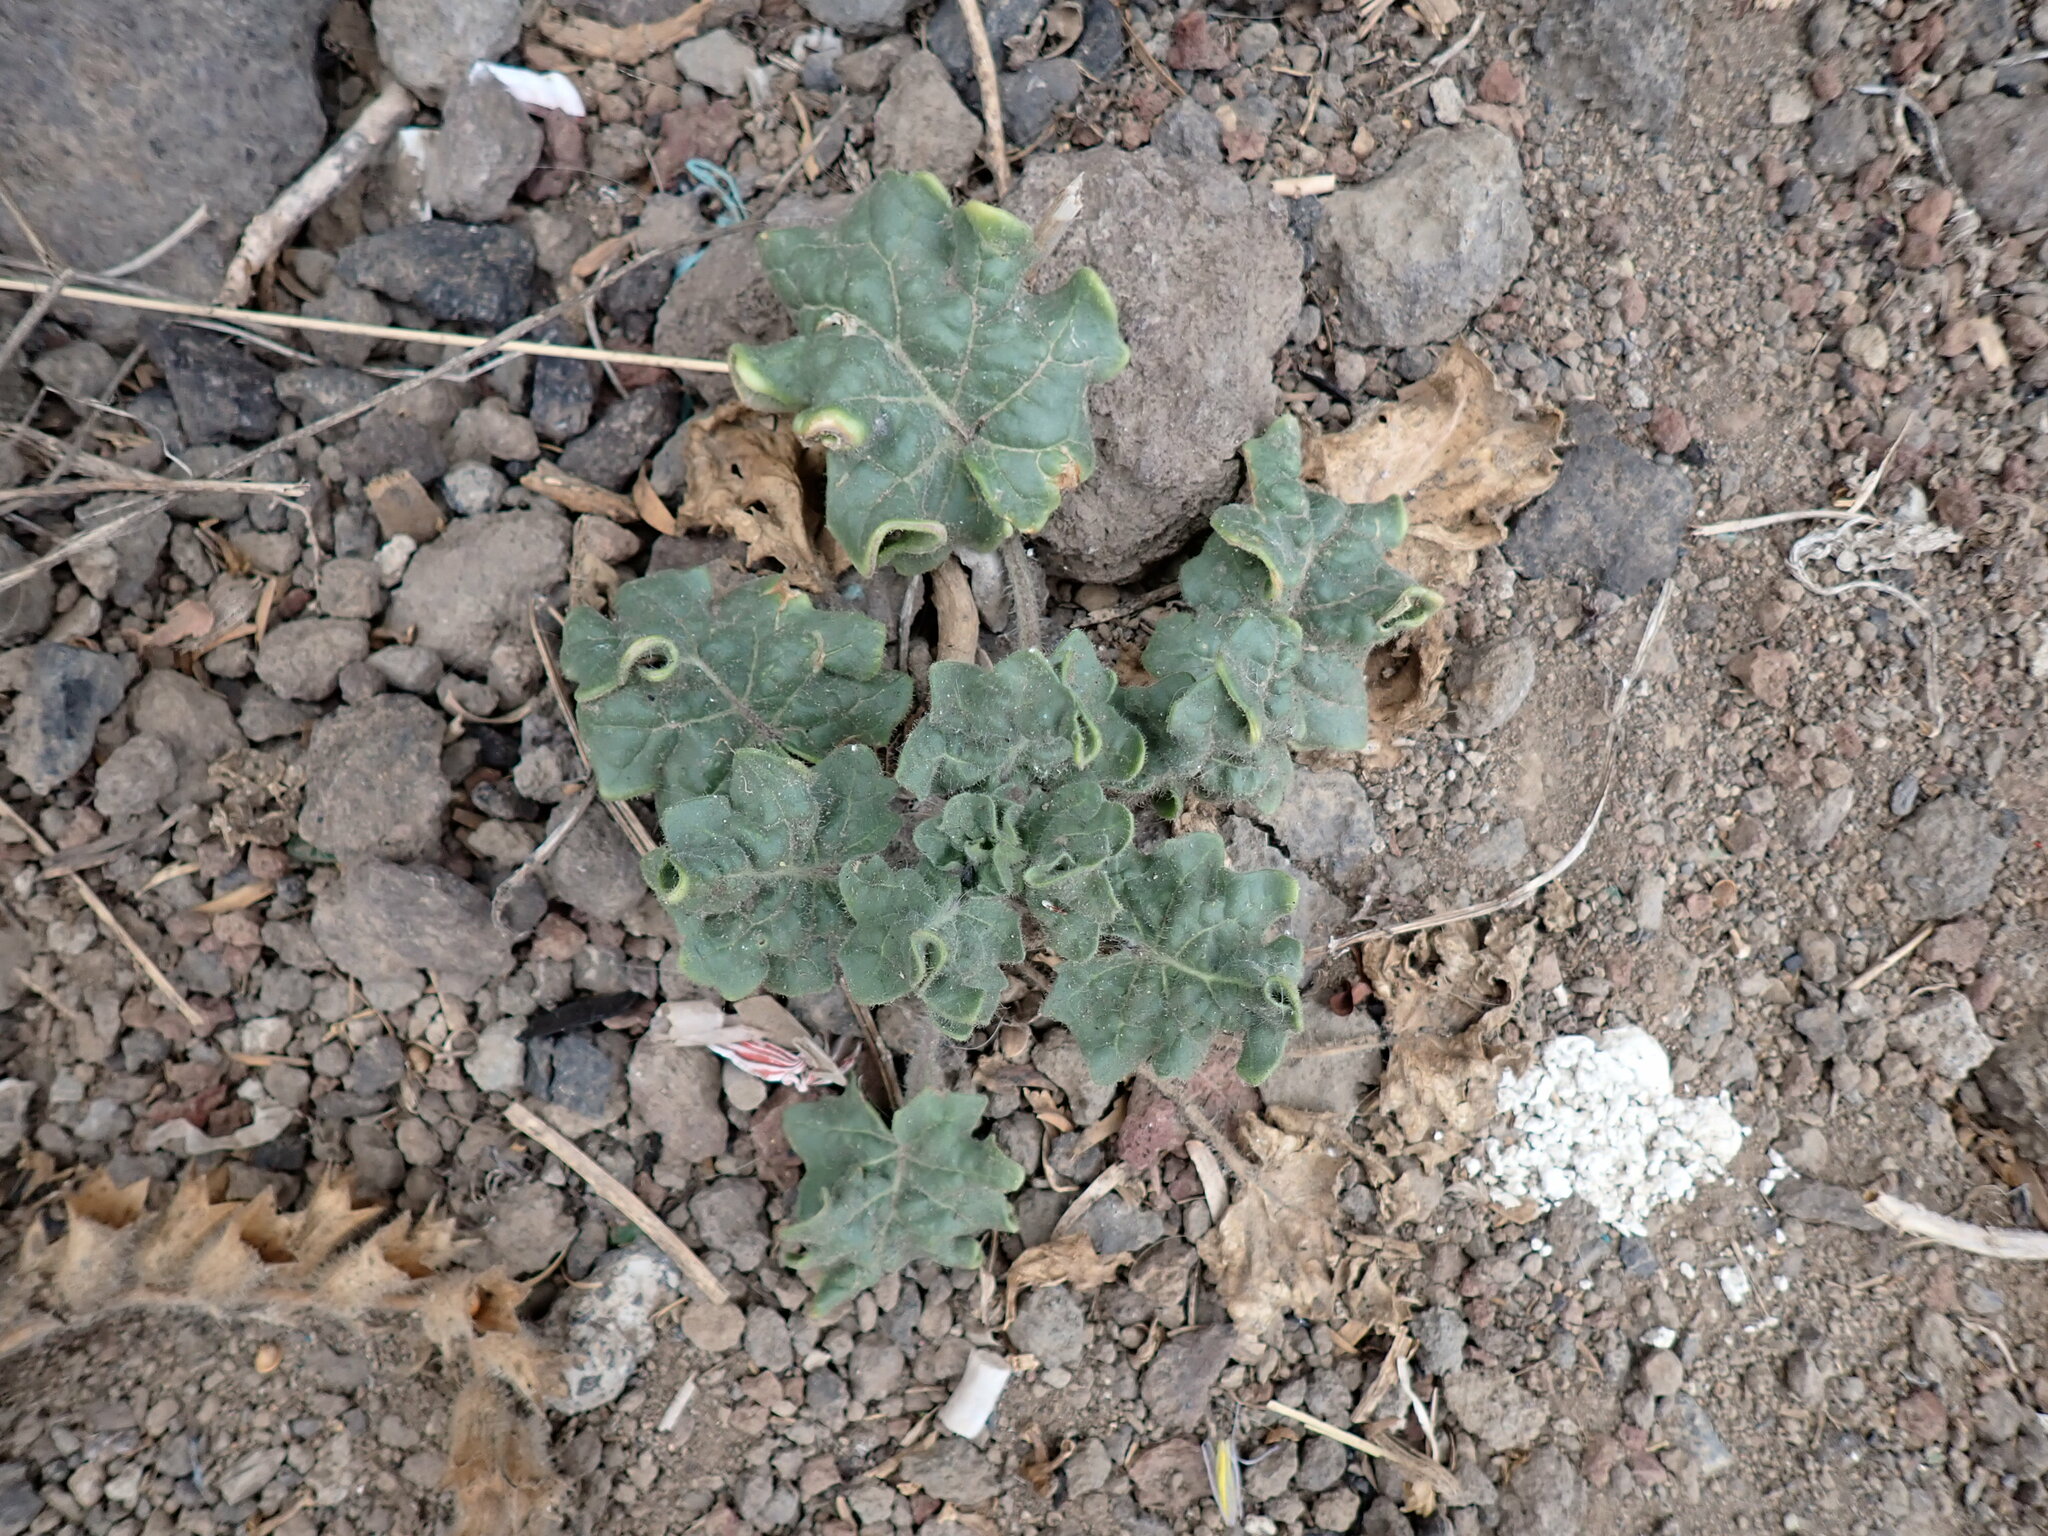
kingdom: Plantae
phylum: Tracheophyta
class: Magnoliopsida
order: Solanales
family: Solanaceae
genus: Hyoscyamus
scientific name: Hyoscyamus albus
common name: White henbane
